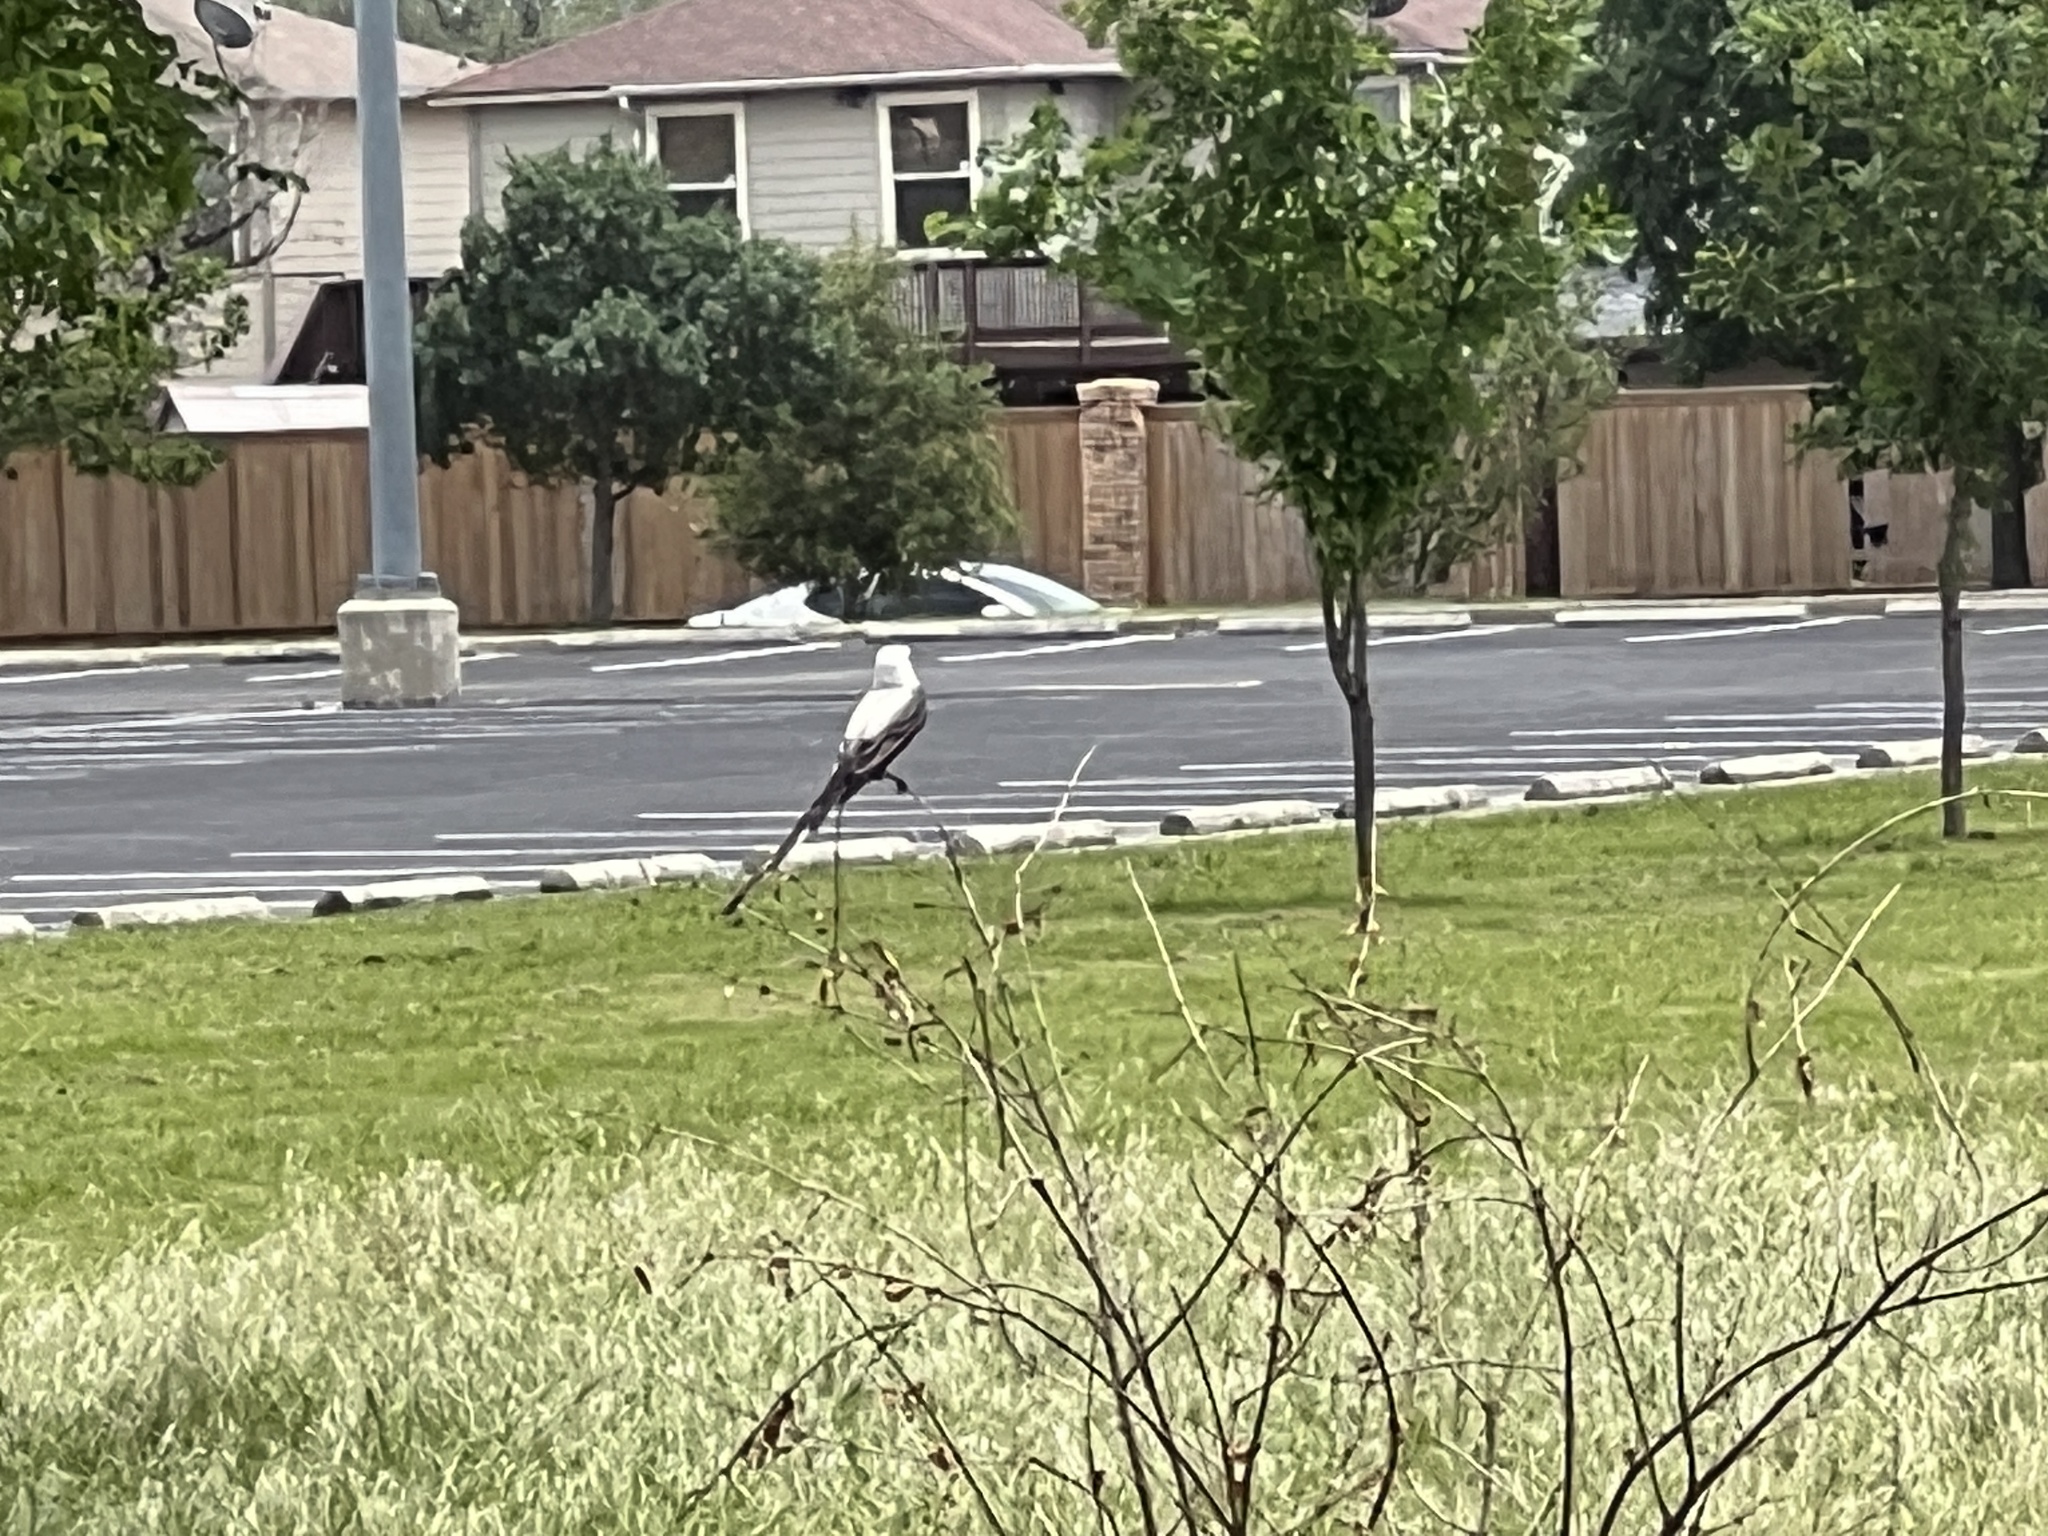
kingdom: Animalia
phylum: Chordata
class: Aves
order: Passeriformes
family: Tyrannidae
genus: Tyrannus
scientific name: Tyrannus forficatus
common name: Scissor-tailed flycatcher
